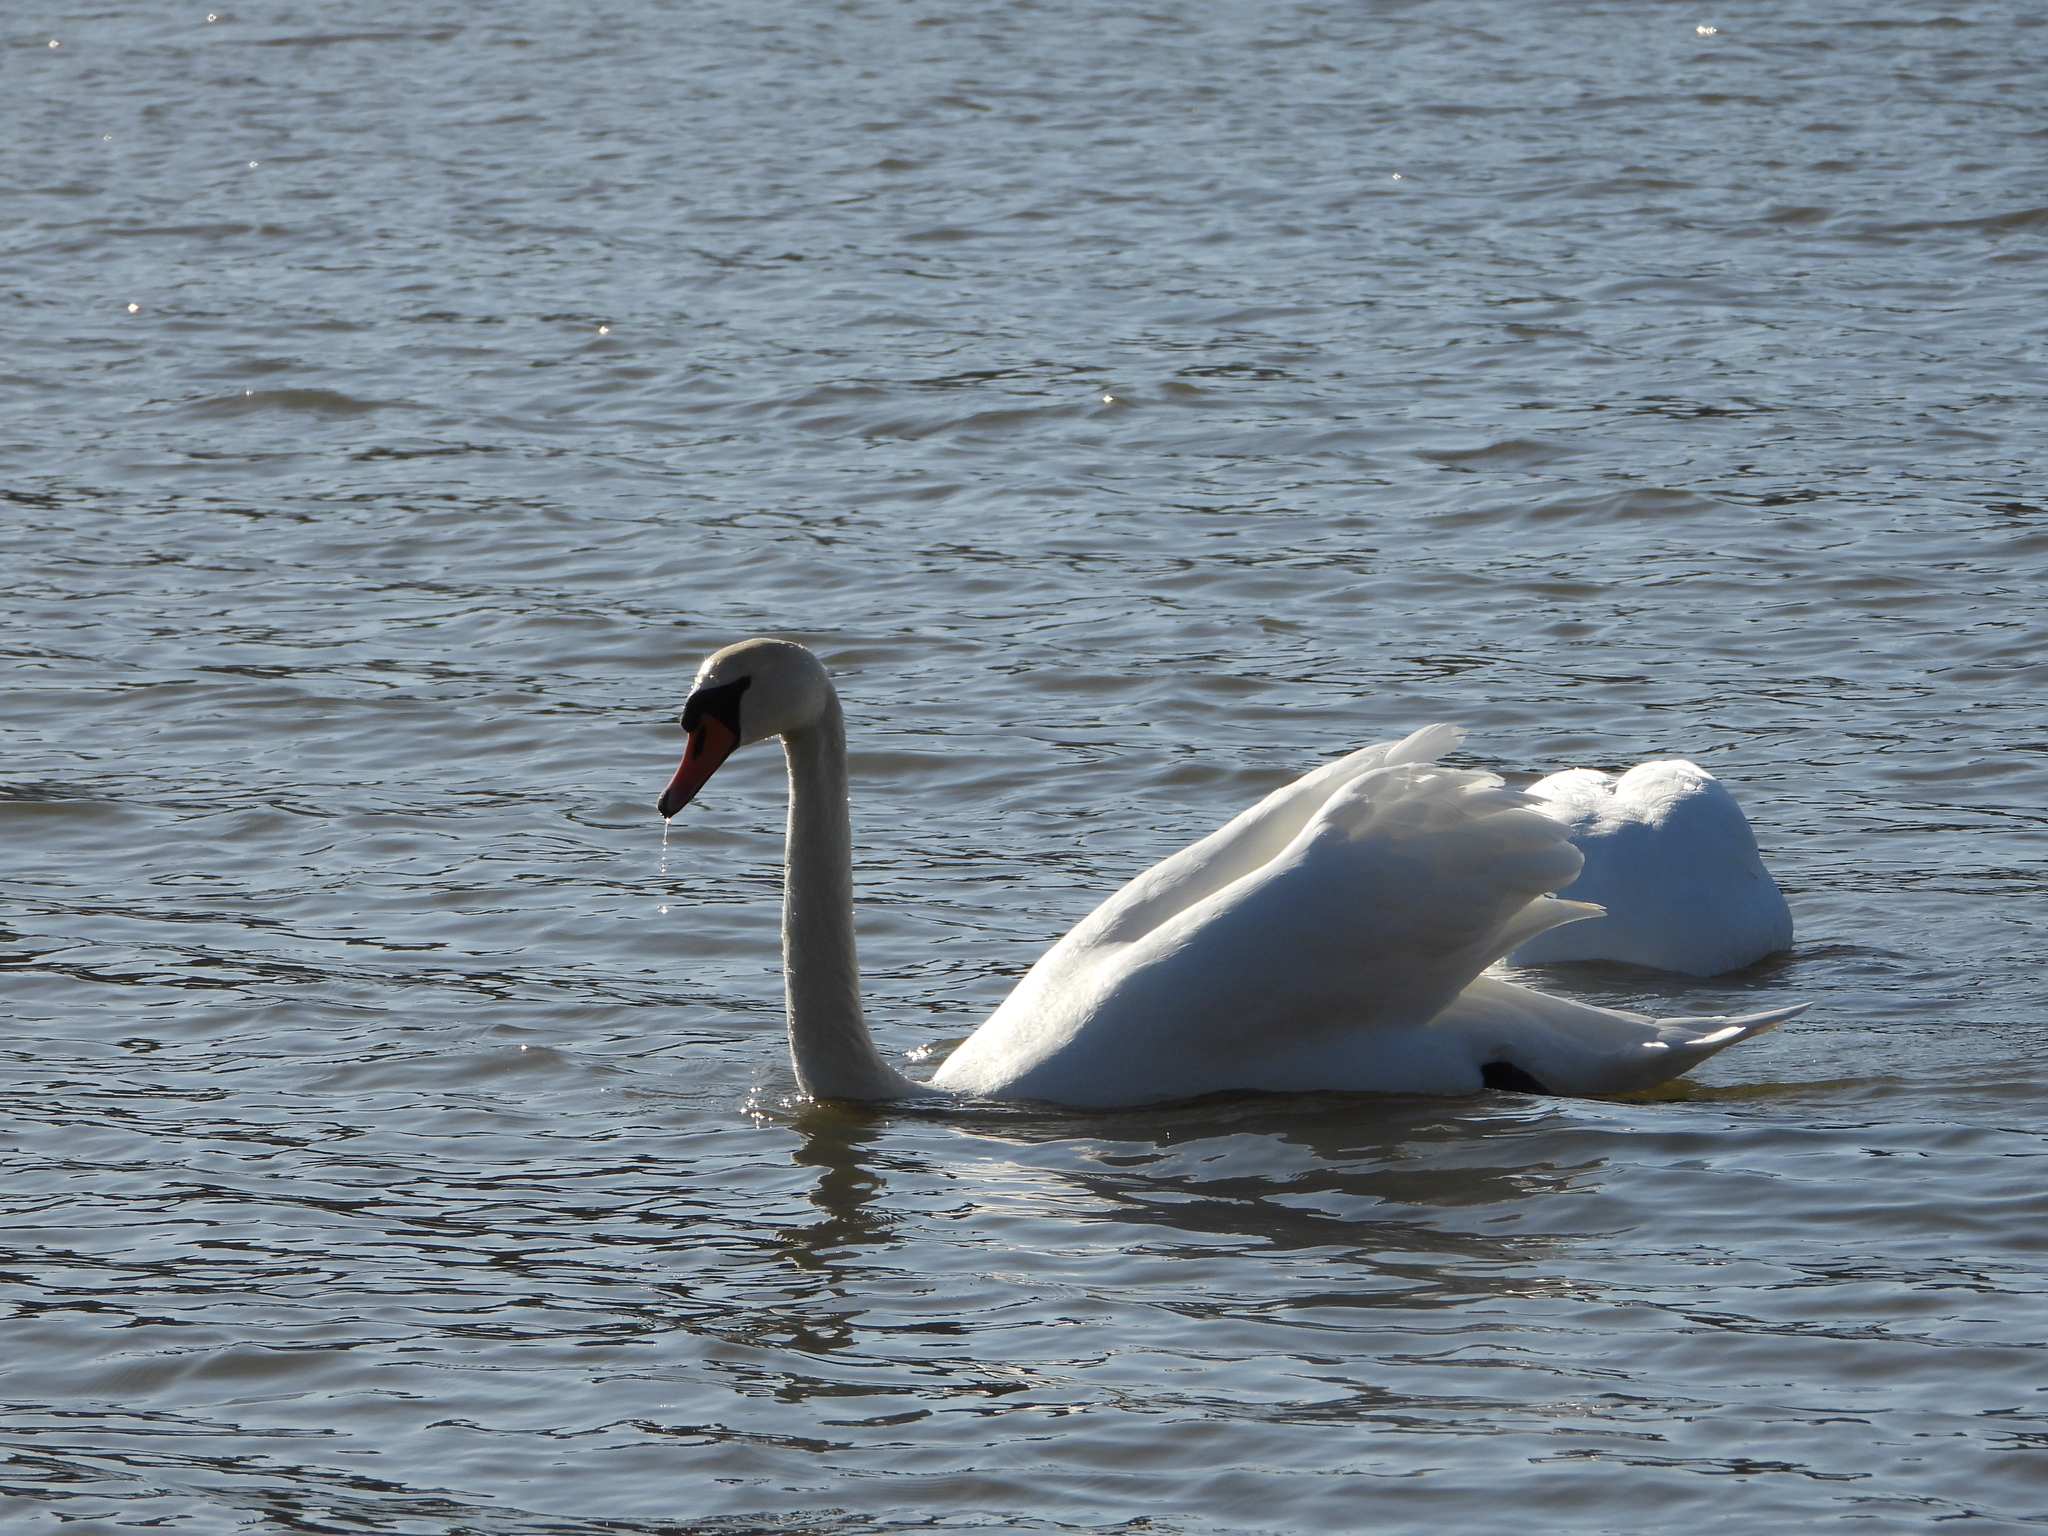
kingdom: Animalia
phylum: Chordata
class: Aves
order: Anseriformes
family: Anatidae
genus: Cygnus
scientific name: Cygnus olor
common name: Mute swan
